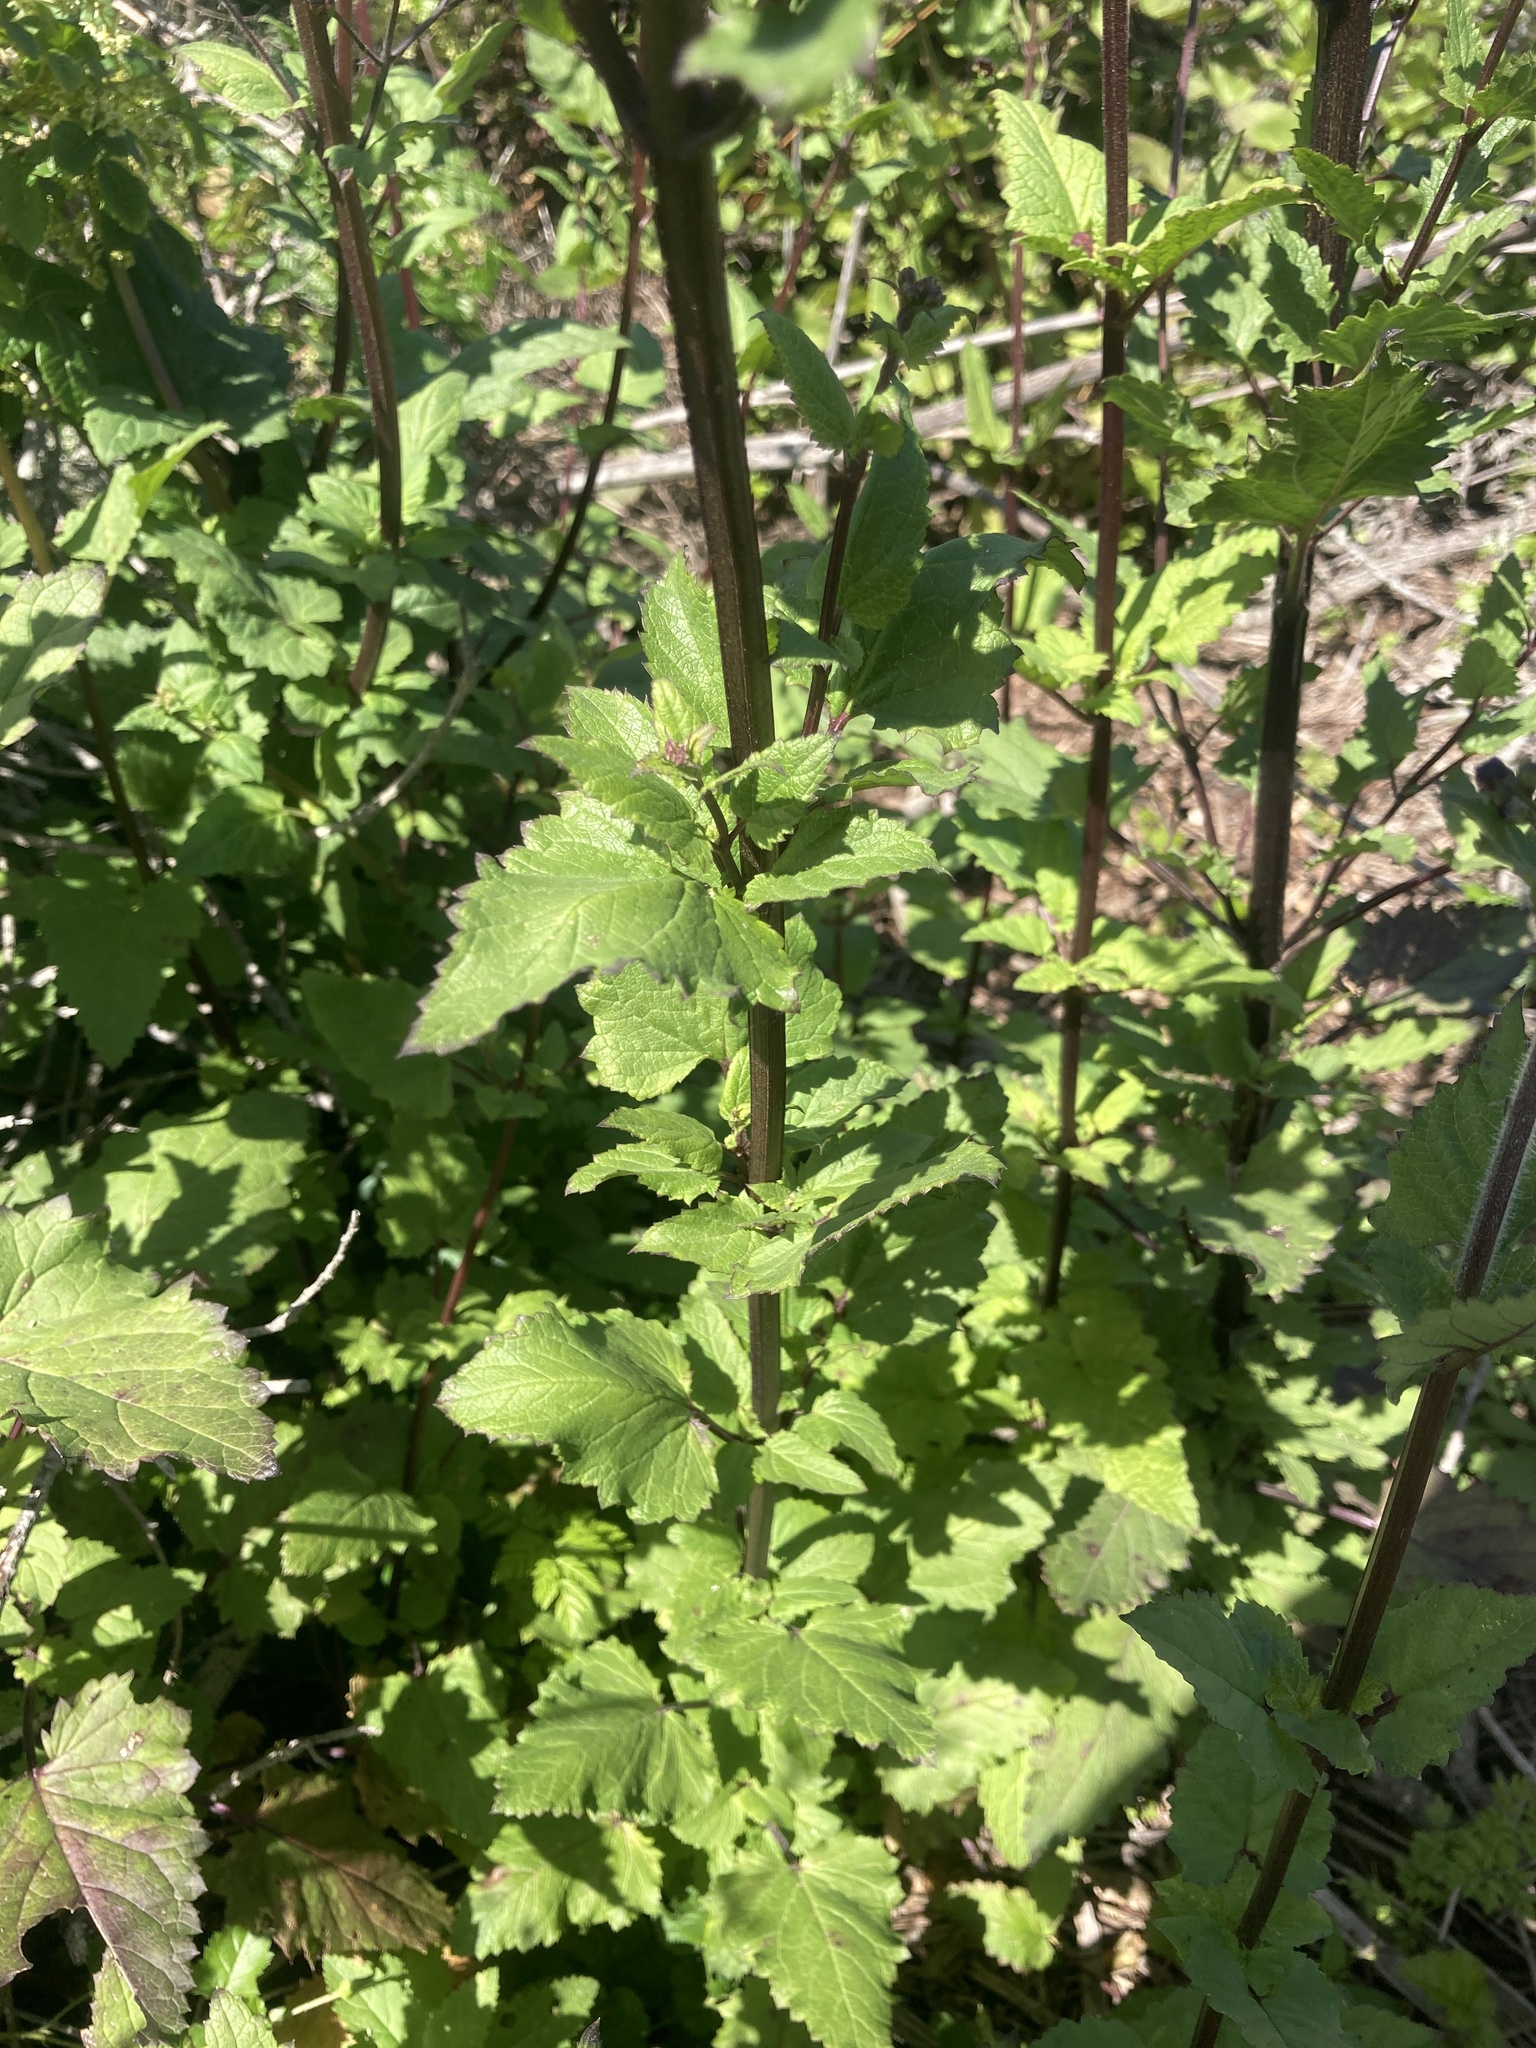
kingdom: Plantae
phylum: Tracheophyta
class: Magnoliopsida
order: Lamiales
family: Scrophulariaceae
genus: Scrophularia
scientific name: Scrophularia californica
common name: California figwort
